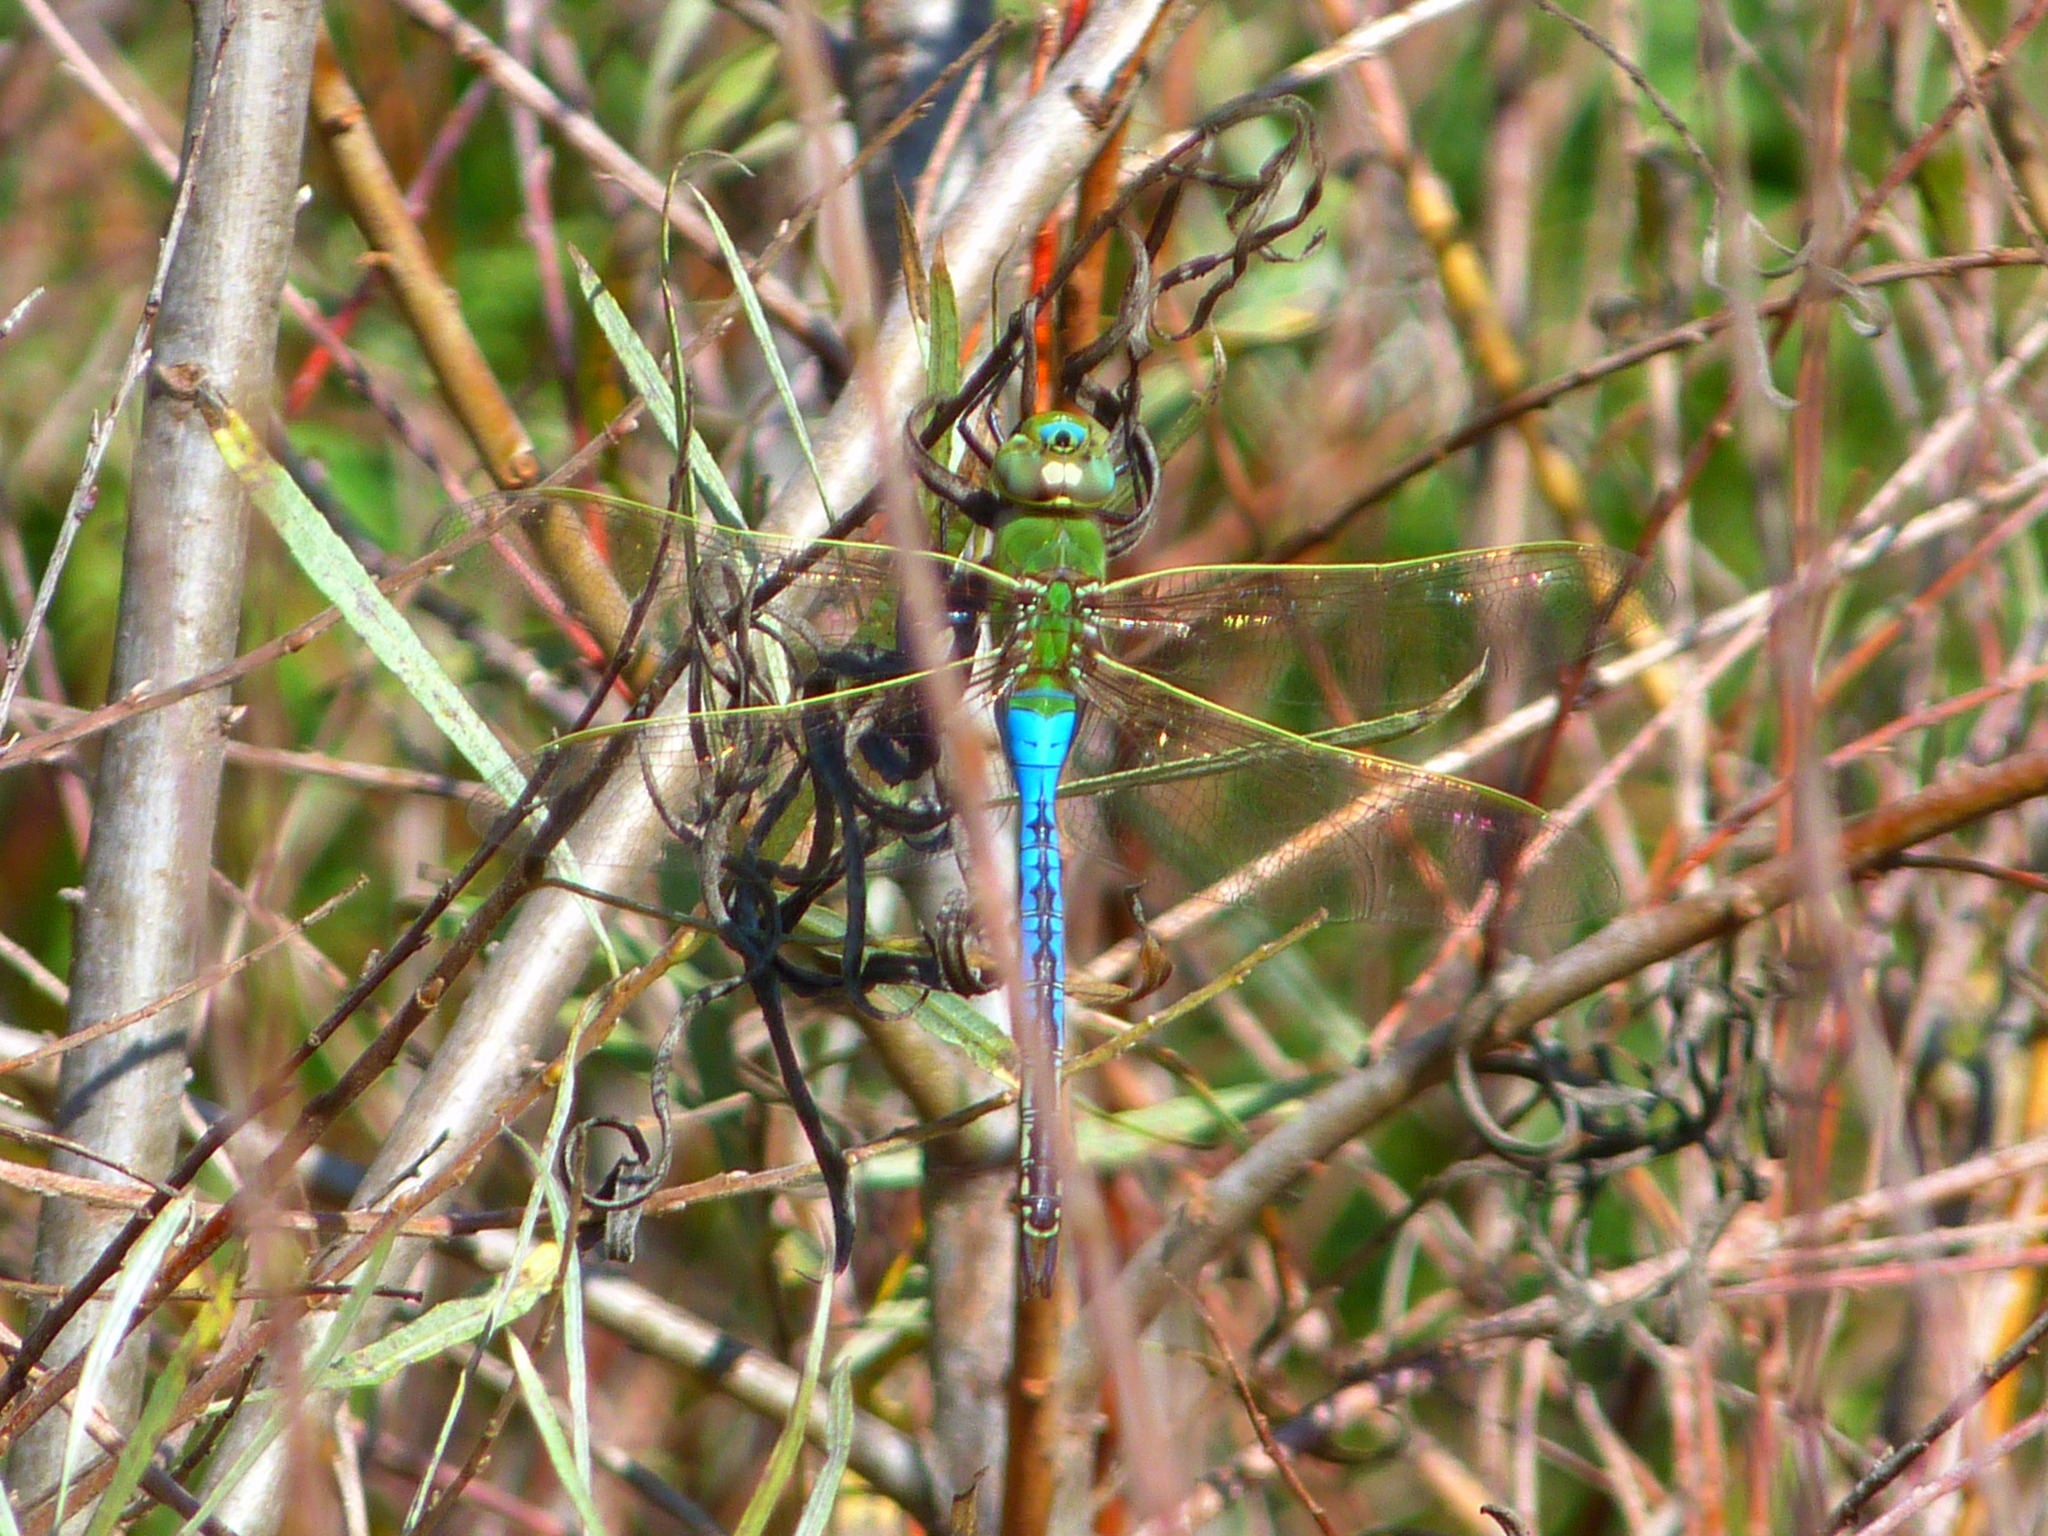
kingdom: Animalia
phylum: Arthropoda
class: Insecta
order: Odonata
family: Aeshnidae
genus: Anax
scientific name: Anax junius
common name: Common green darner
